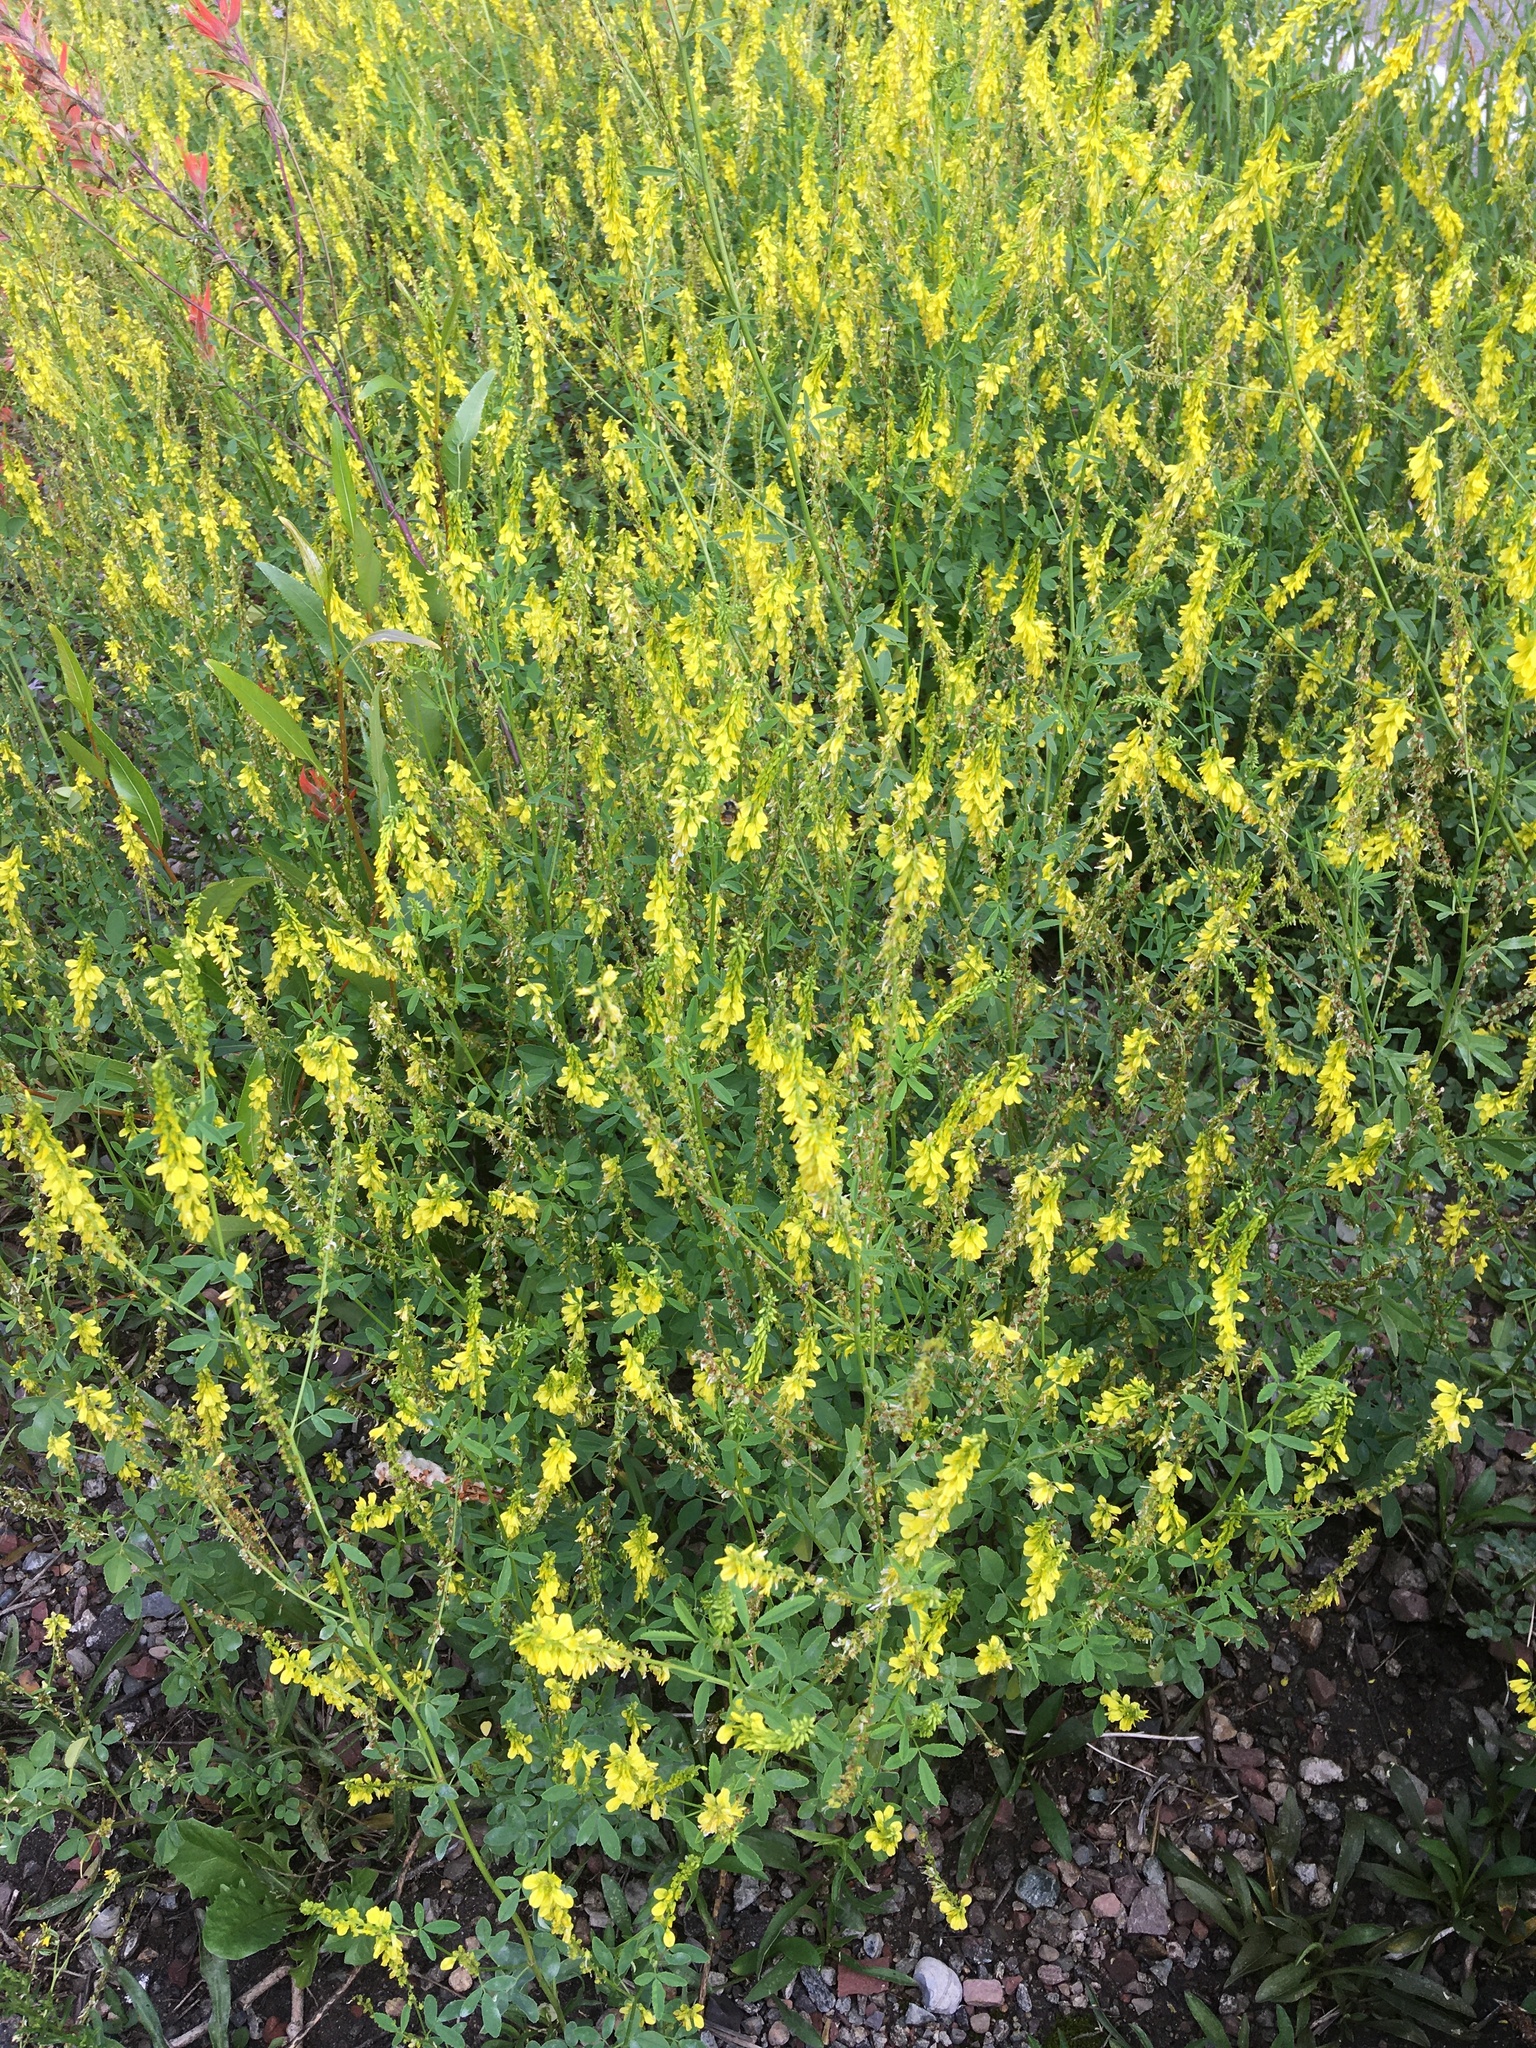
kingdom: Plantae
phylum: Tracheophyta
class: Magnoliopsida
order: Fabales
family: Fabaceae
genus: Melilotus
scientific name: Melilotus officinalis
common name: Sweetclover
